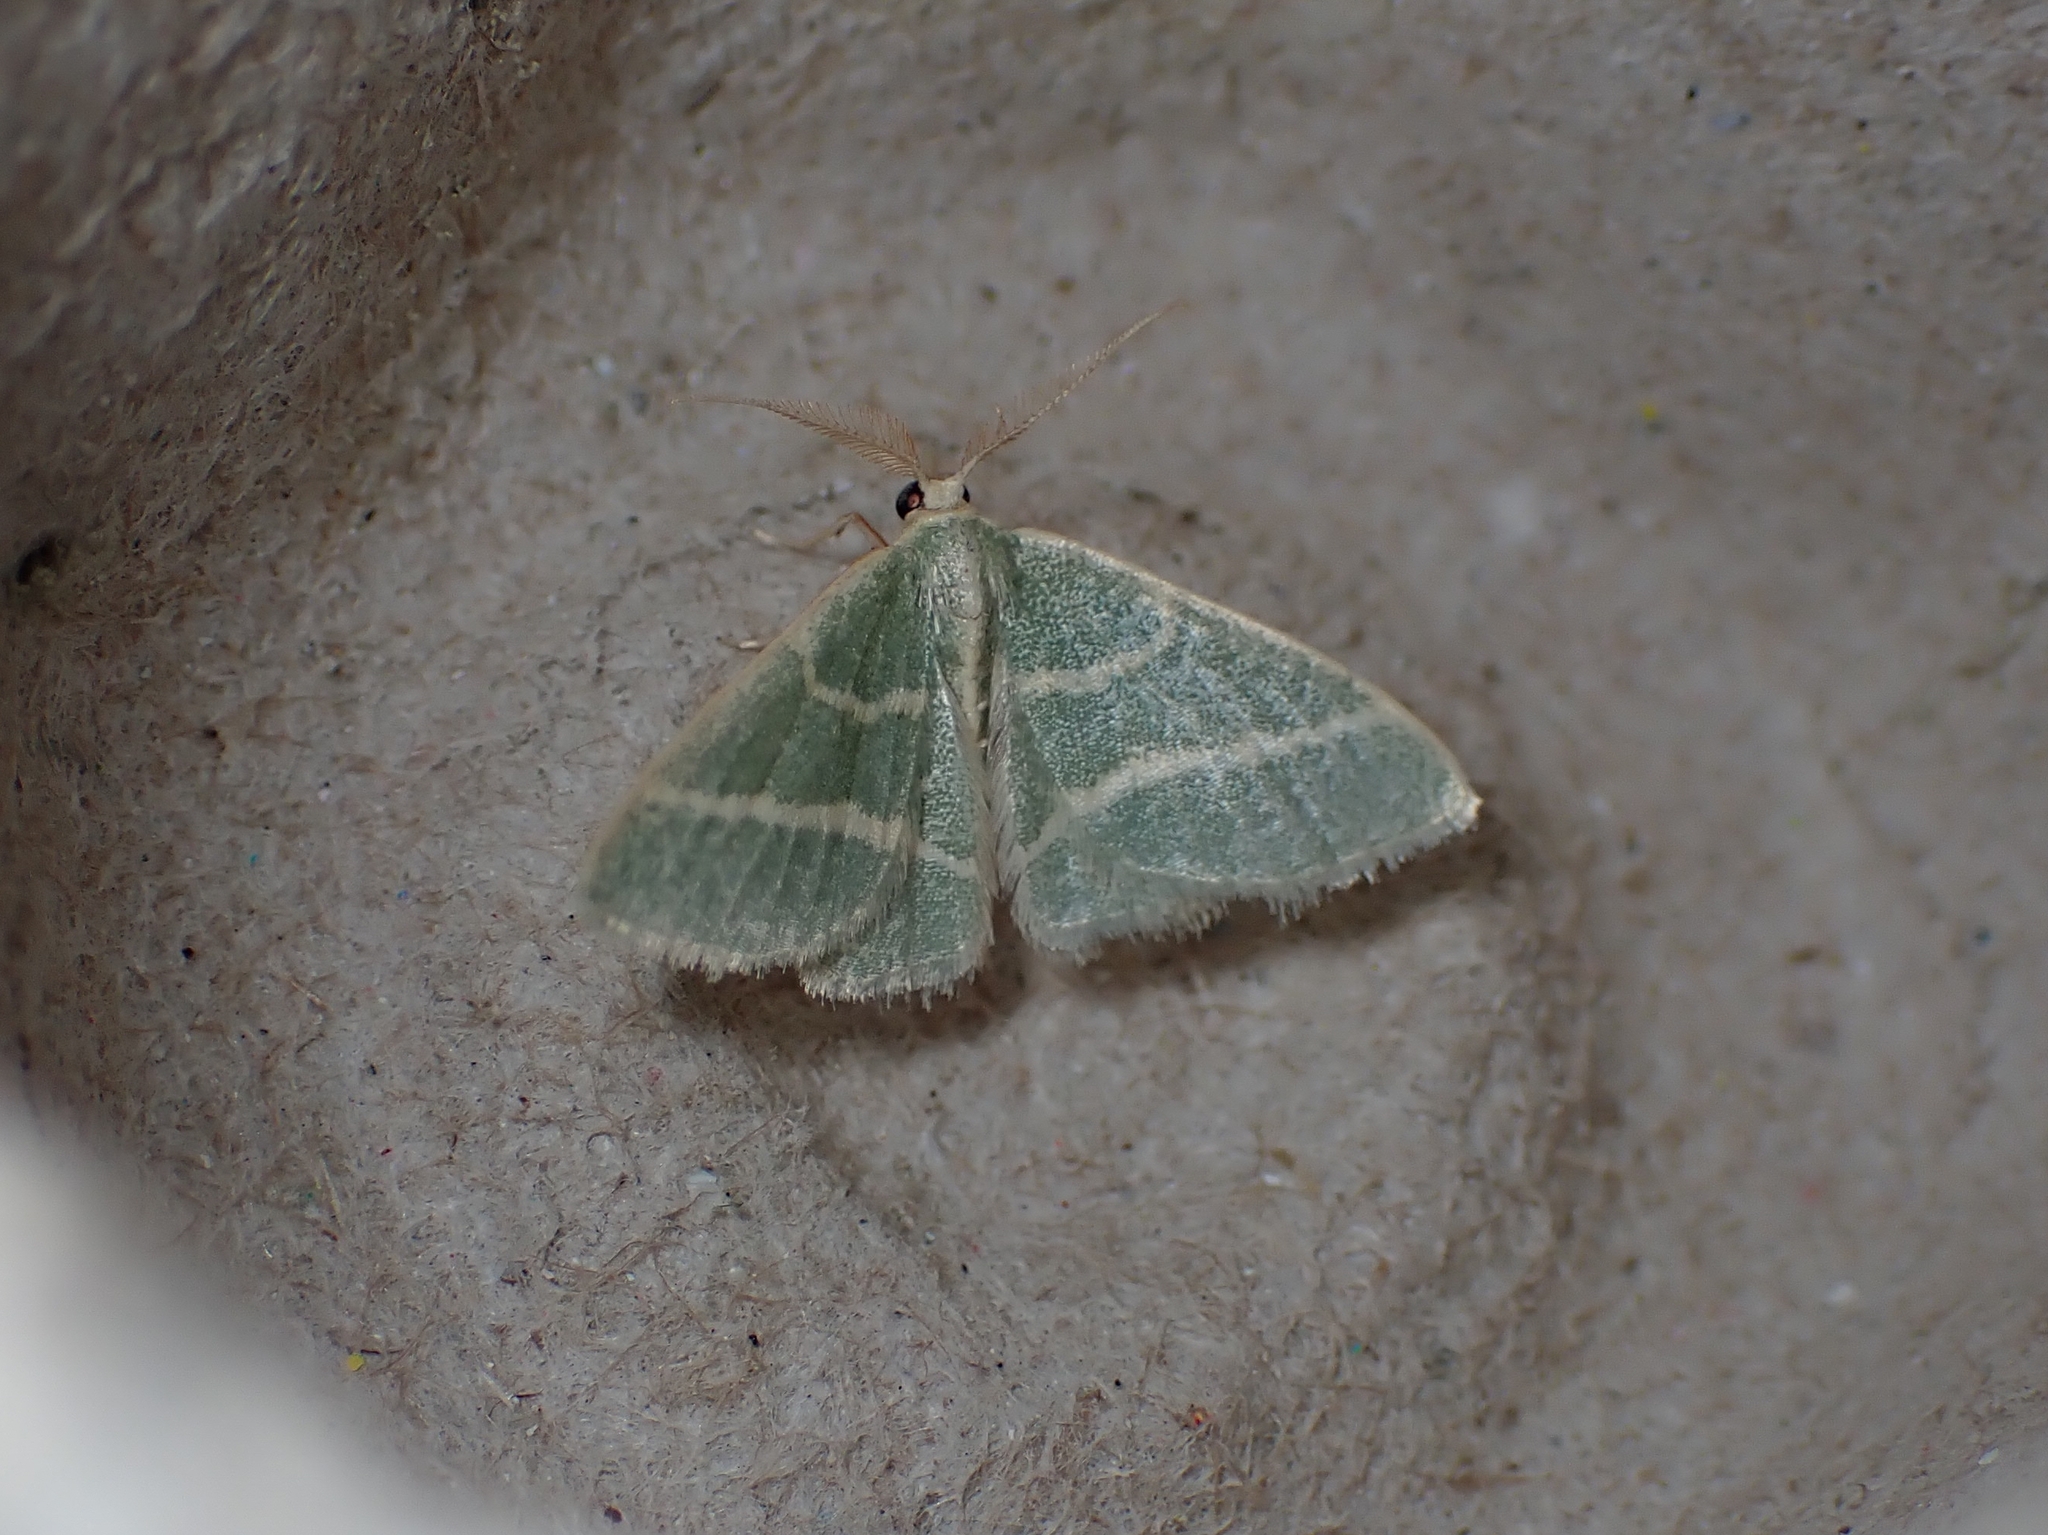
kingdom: Animalia
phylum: Arthropoda
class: Insecta
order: Lepidoptera
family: Geometridae
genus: Chlorochlamys
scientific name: Chlorochlamys chloroleucaria
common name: Blackberry looper
